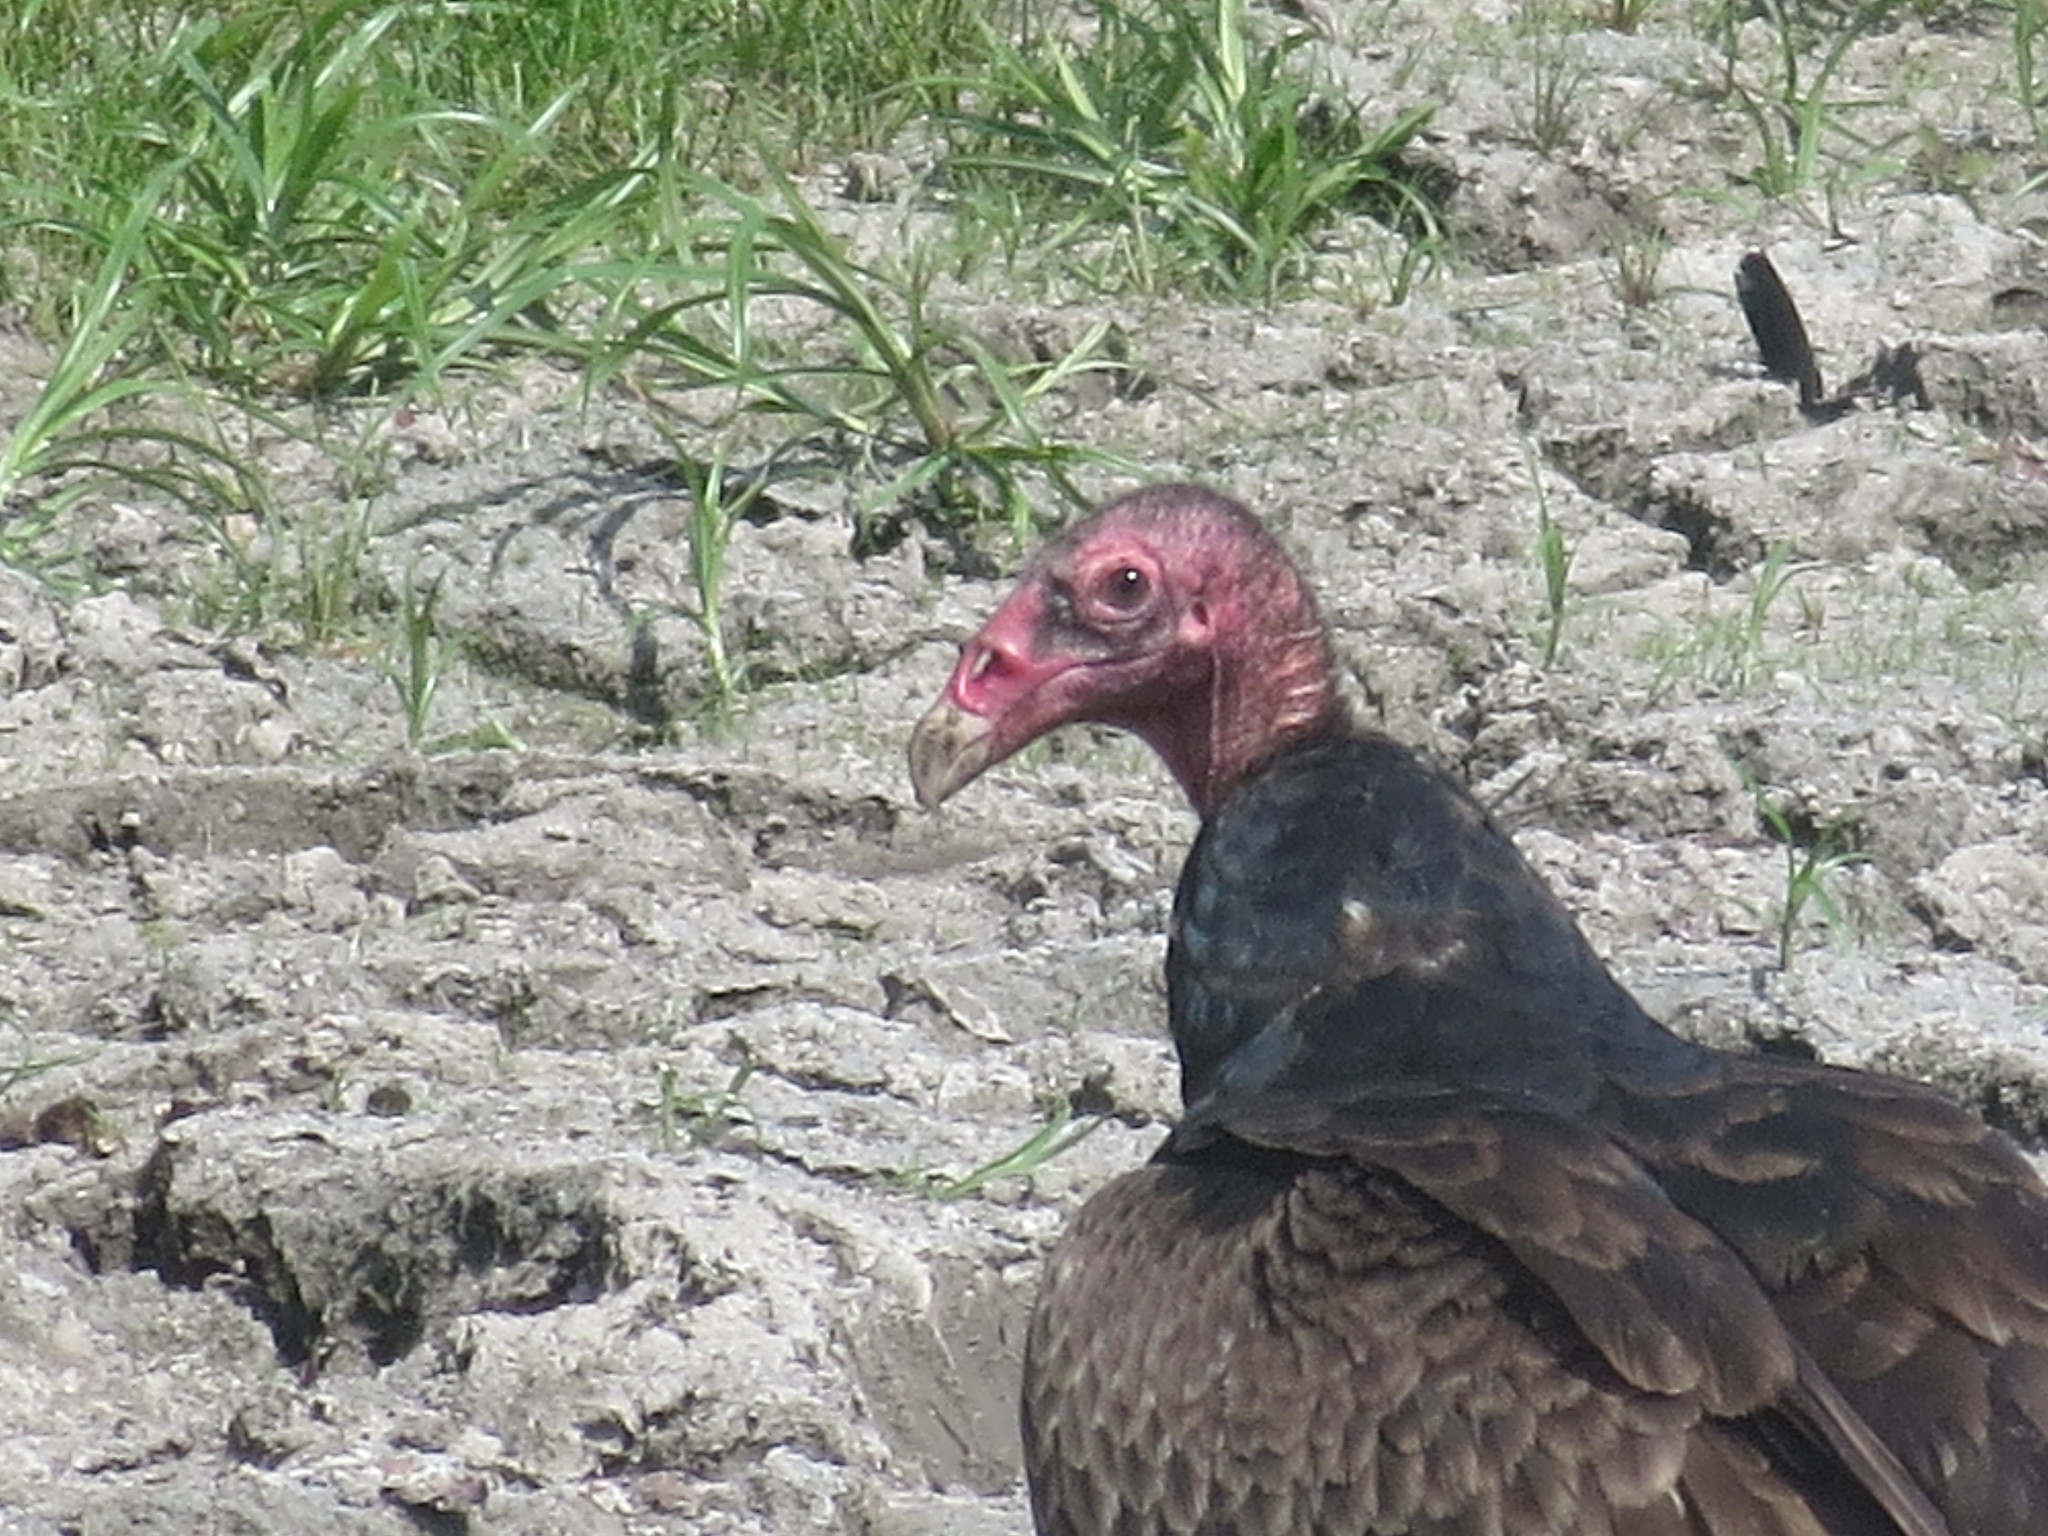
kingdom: Animalia
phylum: Chordata
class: Aves
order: Accipitriformes
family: Cathartidae
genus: Cathartes
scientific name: Cathartes aura
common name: Turkey vulture
